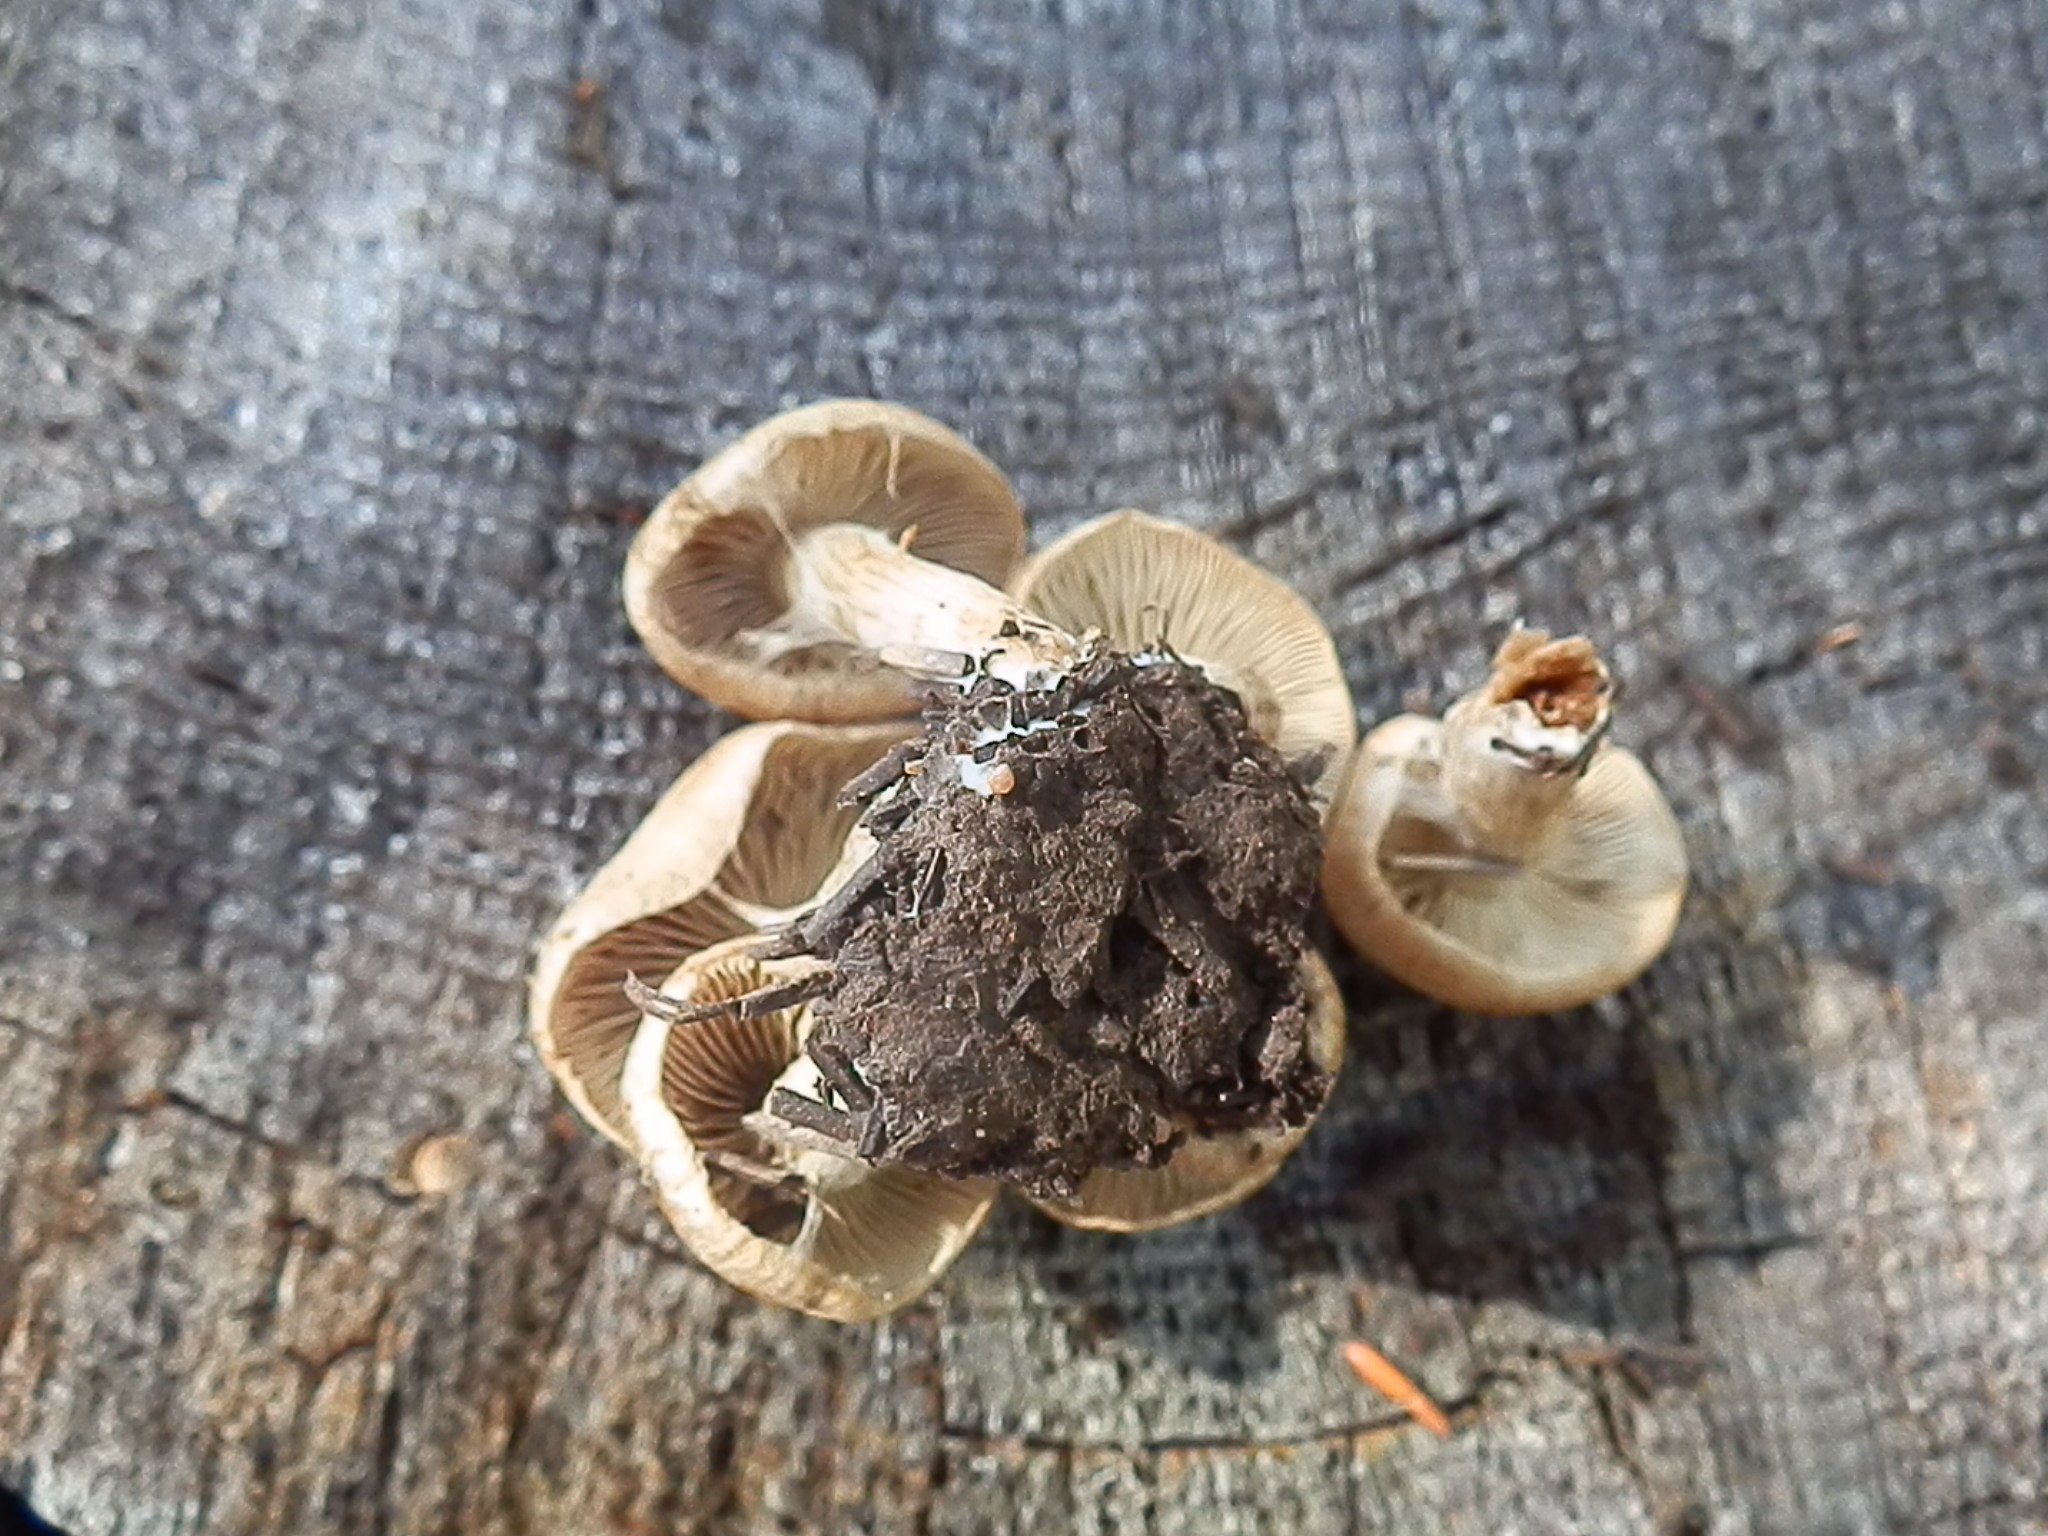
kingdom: Fungi
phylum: Basidiomycota
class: Agaricomycetes
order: Agaricales
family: Inocybaceae
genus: Mallocybe
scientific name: Mallocybe
